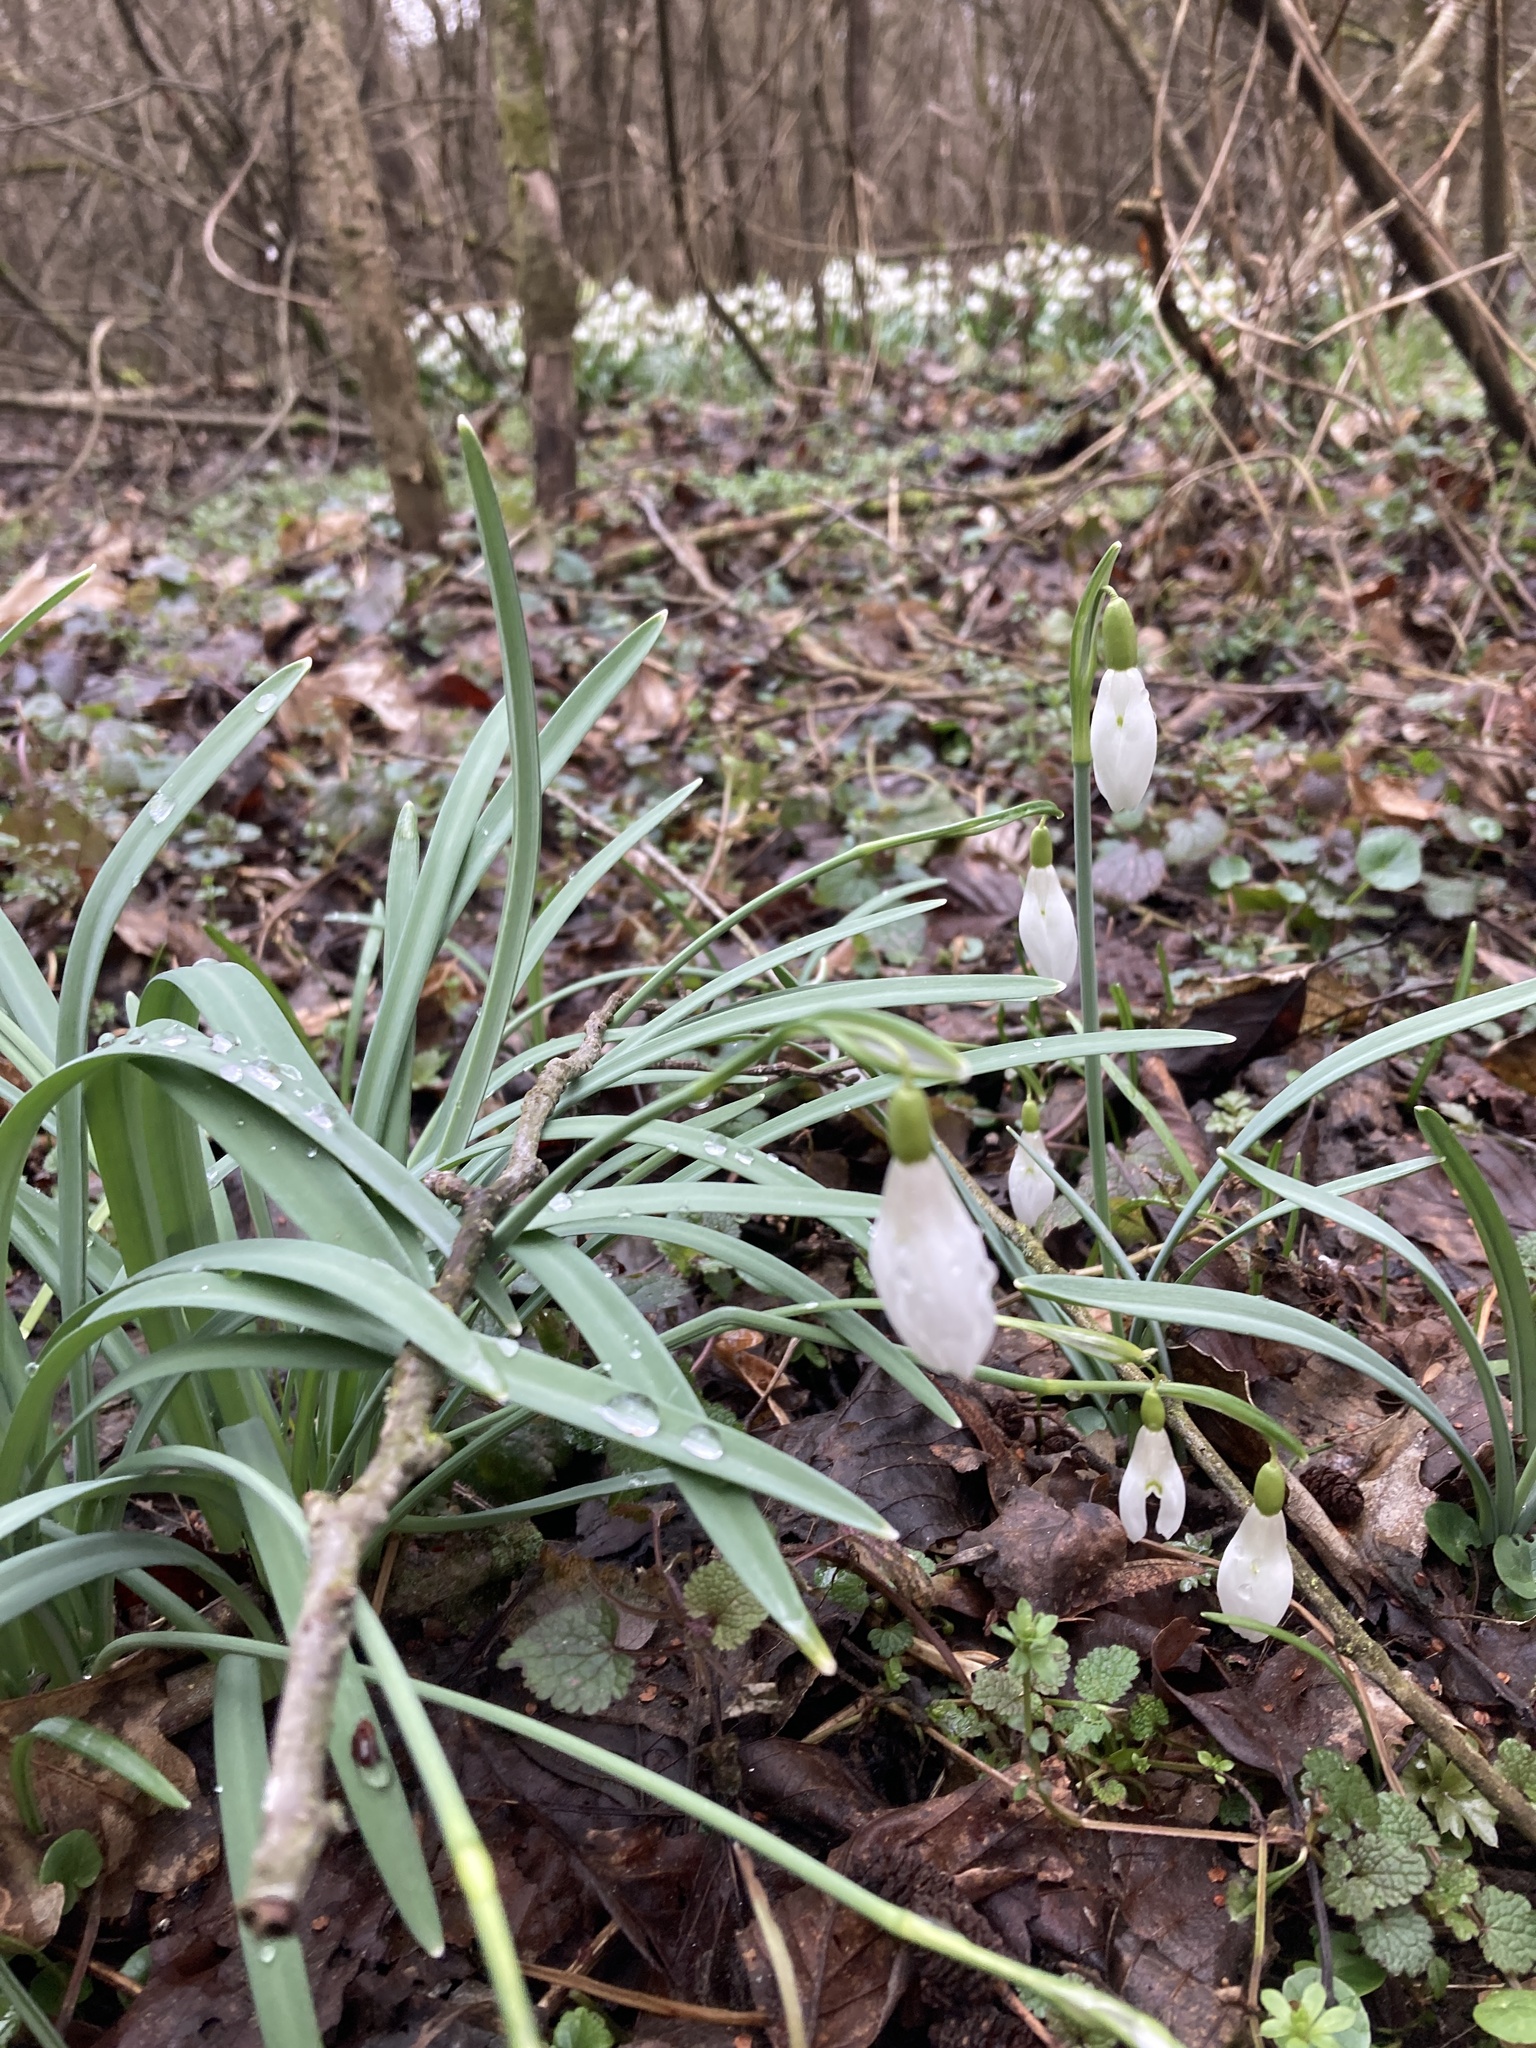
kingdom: Plantae
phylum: Tracheophyta
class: Liliopsida
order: Asparagales
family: Amaryllidaceae
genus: Galanthus
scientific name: Galanthus nivalis
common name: Snowdrop
